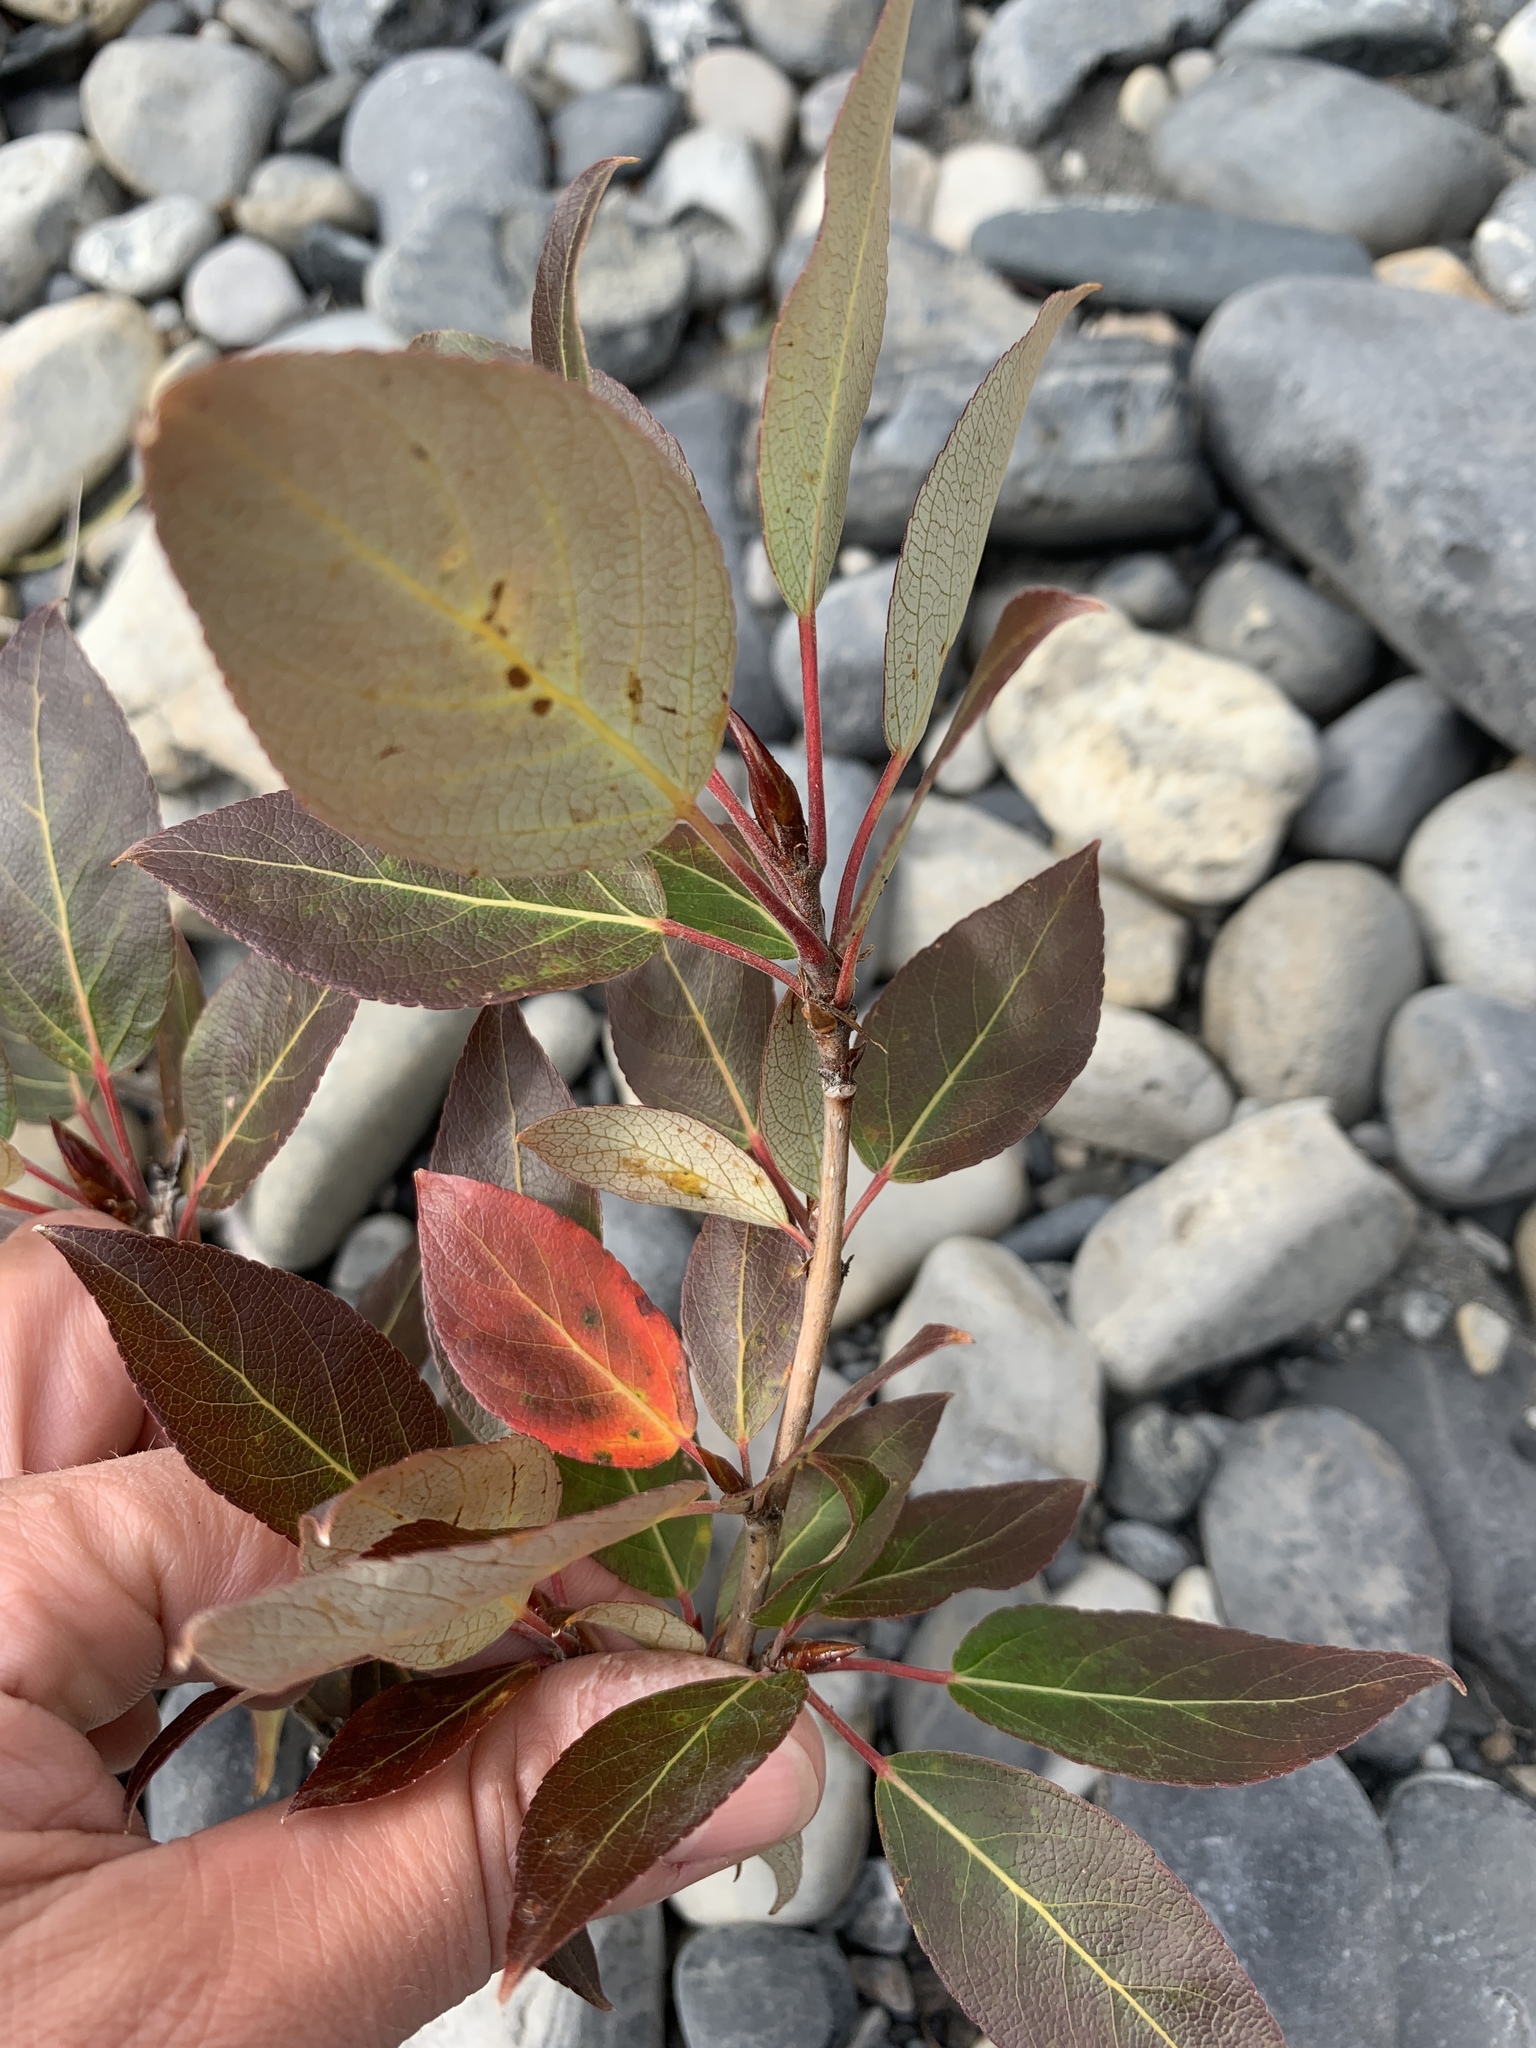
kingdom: Plantae
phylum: Tracheophyta
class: Magnoliopsida
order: Malpighiales
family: Salicaceae
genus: Populus
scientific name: Populus balsamifera
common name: Balsam poplar
